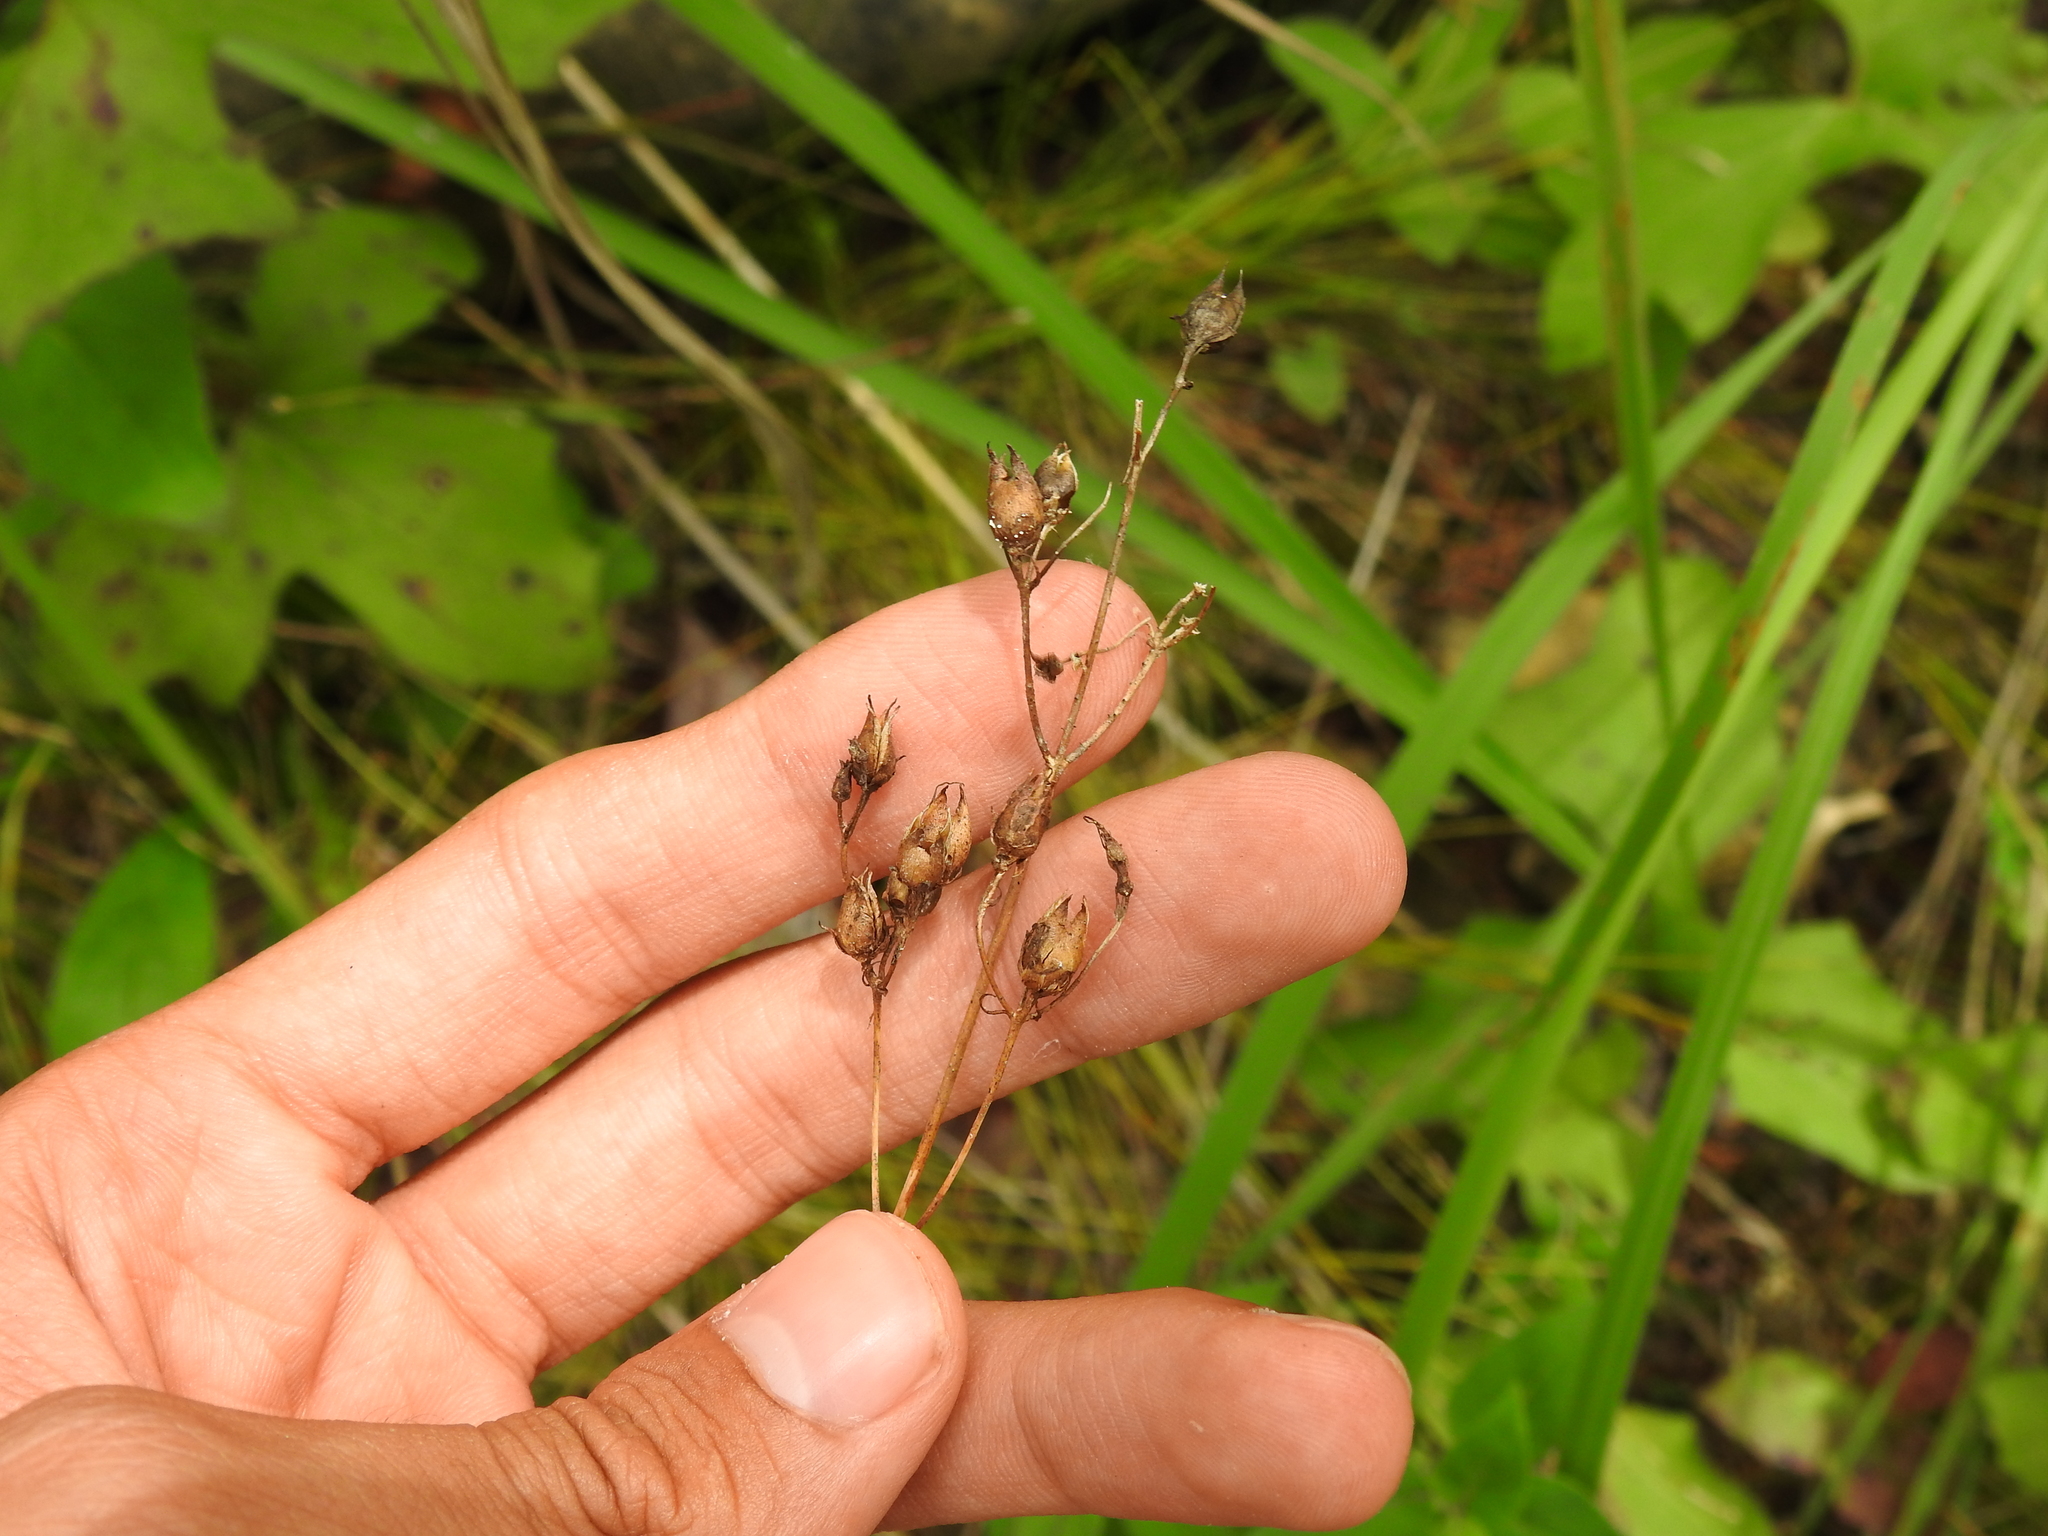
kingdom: Plantae
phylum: Tracheophyta
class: Magnoliopsida
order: Lamiales
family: Plantaginaceae
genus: Penstemon
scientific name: Penstemon digitalis
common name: Foxglove beardtongue
